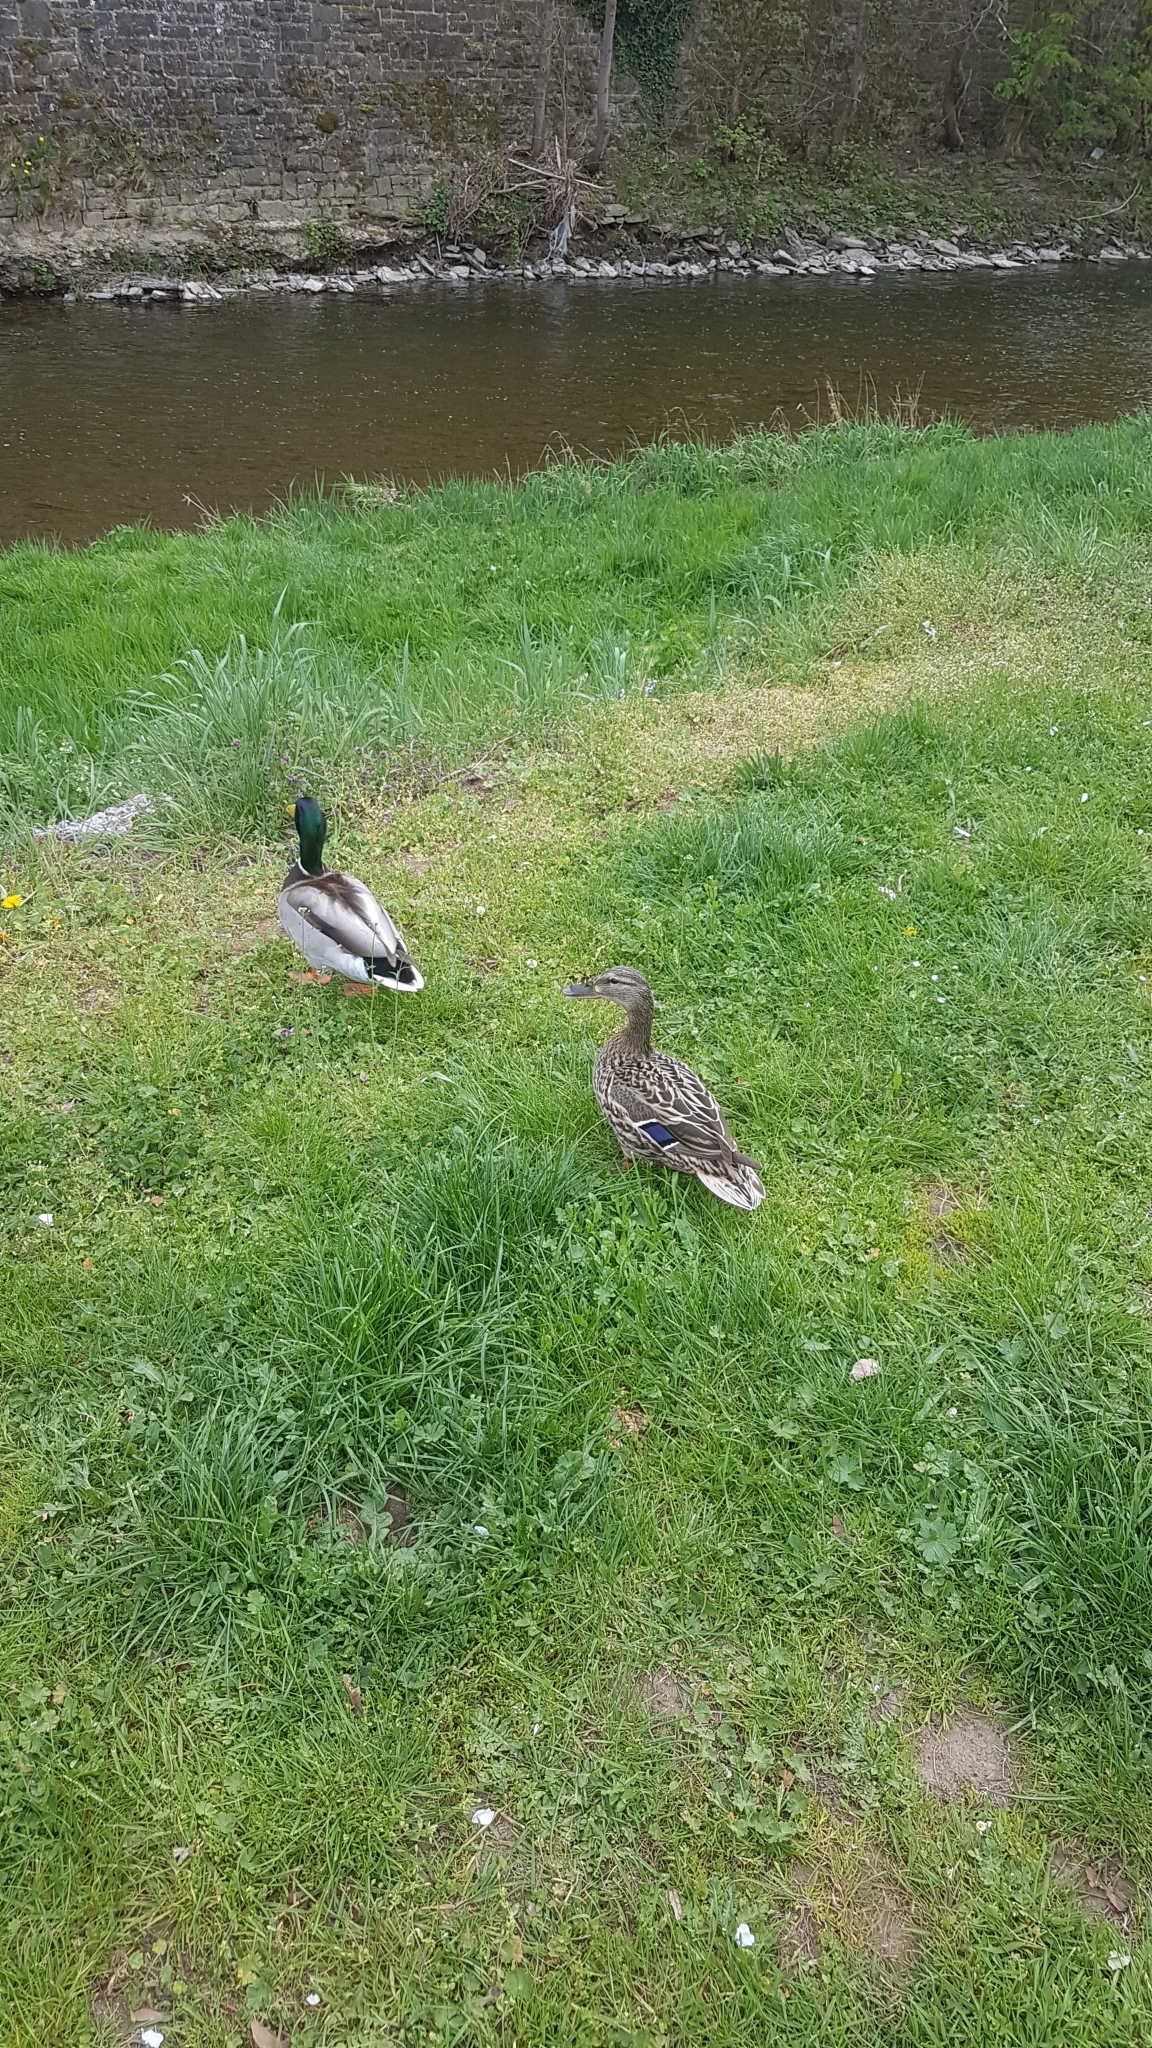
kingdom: Animalia
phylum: Chordata
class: Aves
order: Anseriformes
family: Anatidae
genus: Anas
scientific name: Anas platyrhynchos
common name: Mallard
